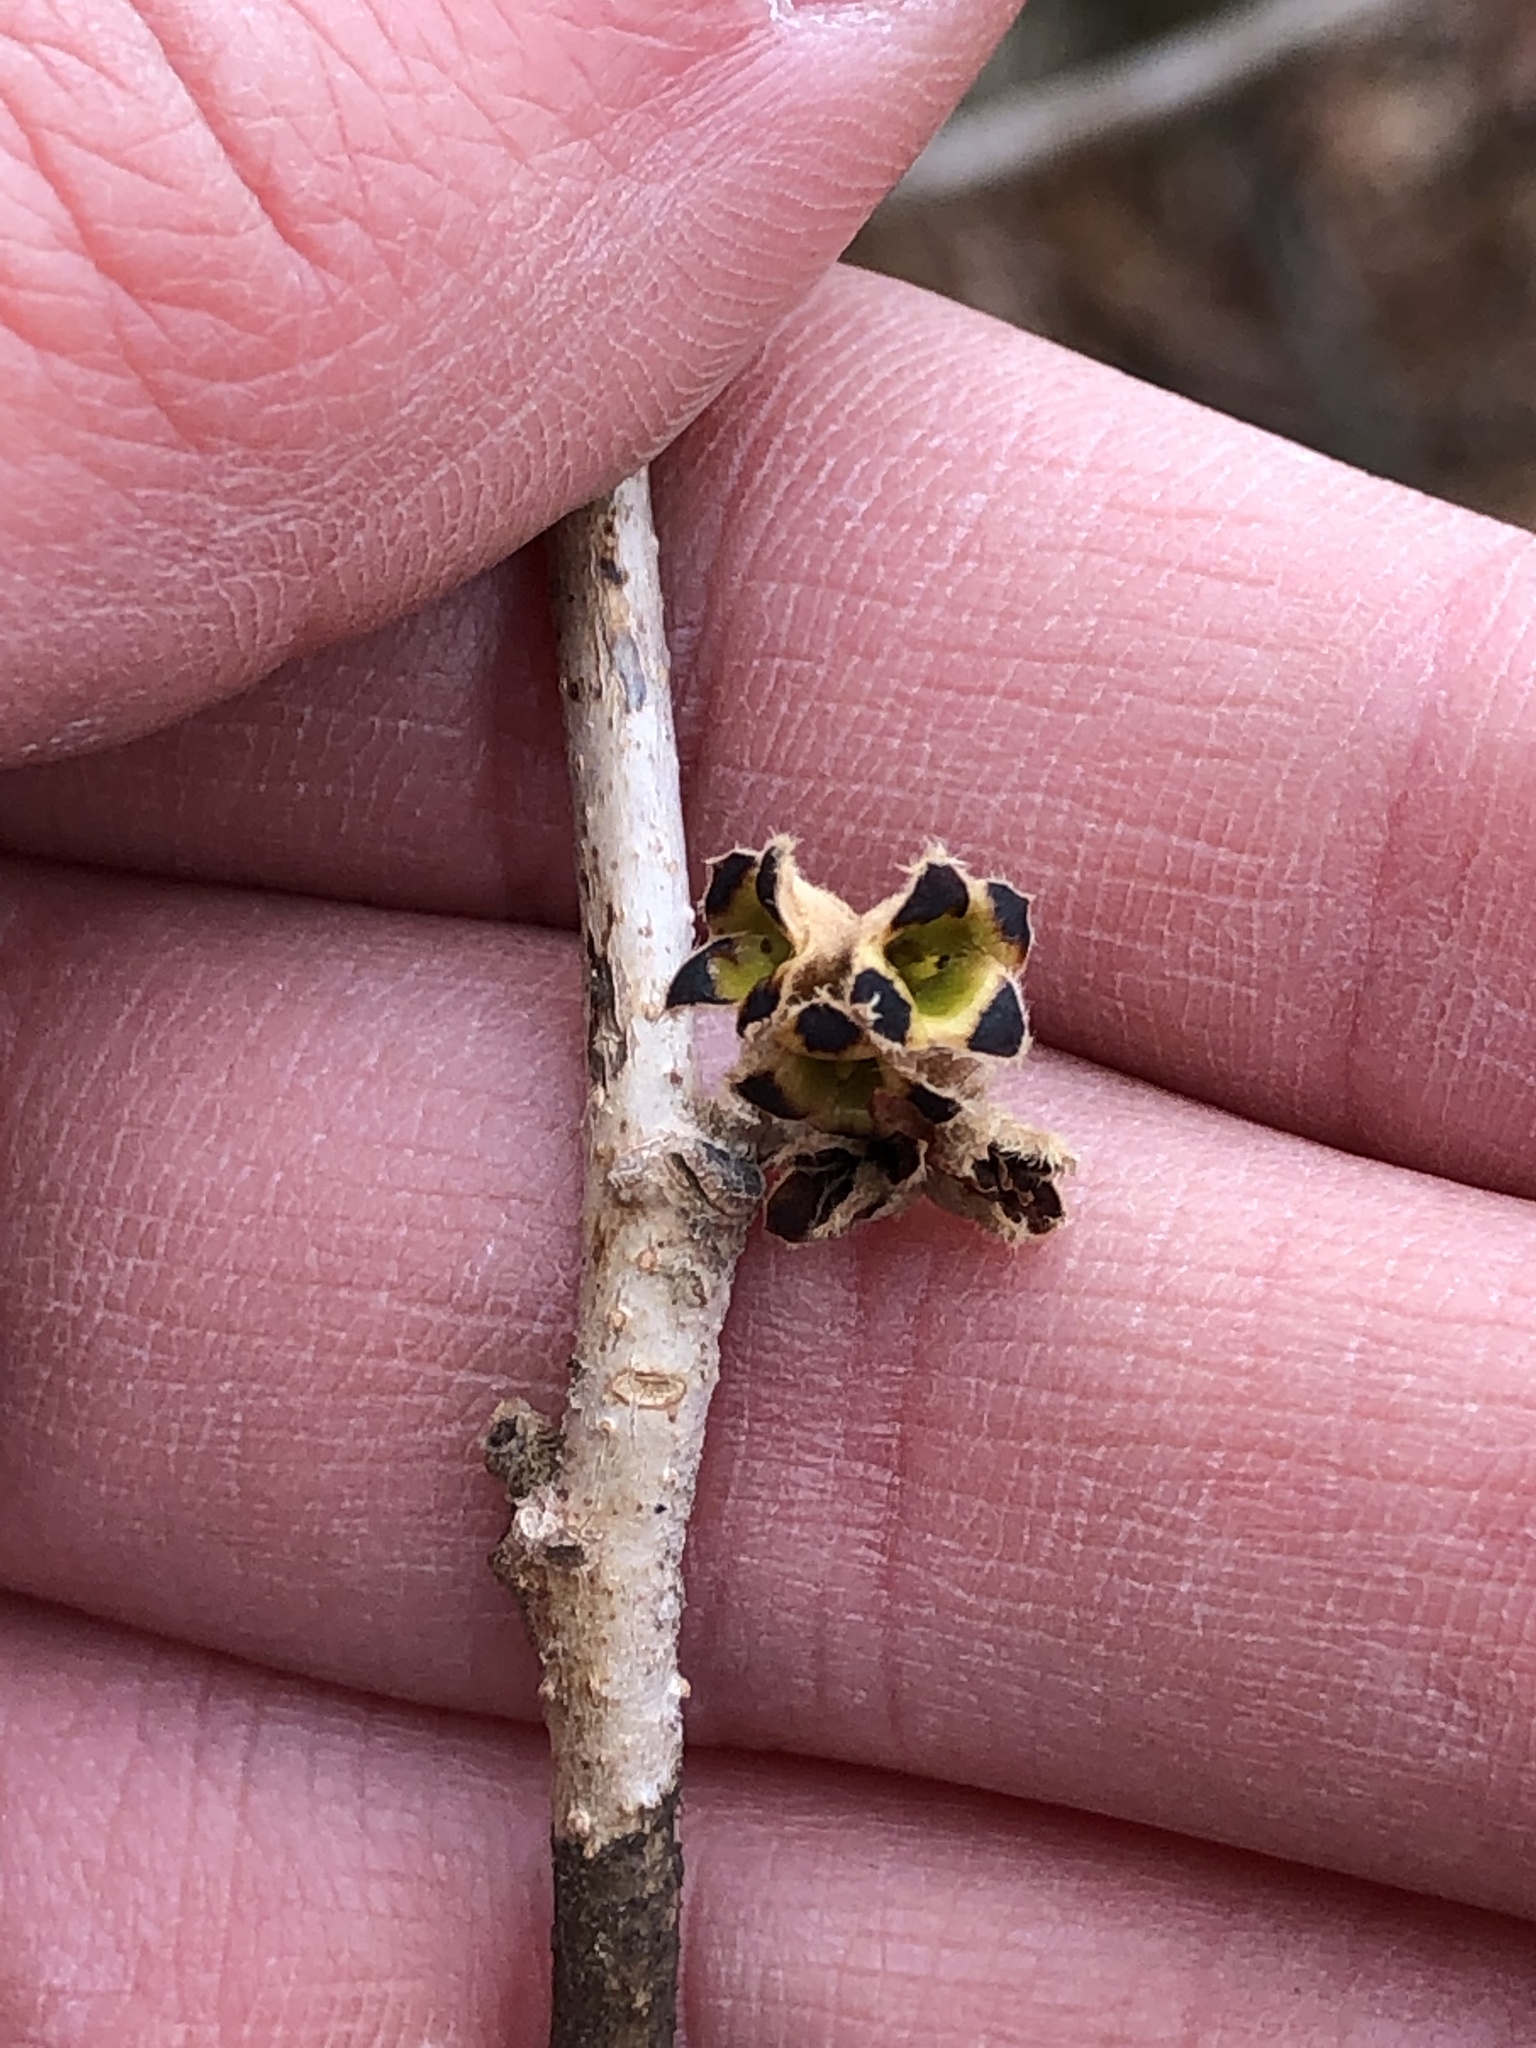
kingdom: Plantae
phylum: Tracheophyta
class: Magnoliopsida
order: Saxifragales
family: Hamamelidaceae
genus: Hamamelis
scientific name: Hamamelis vernalis
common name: Ozark witch-hazel
